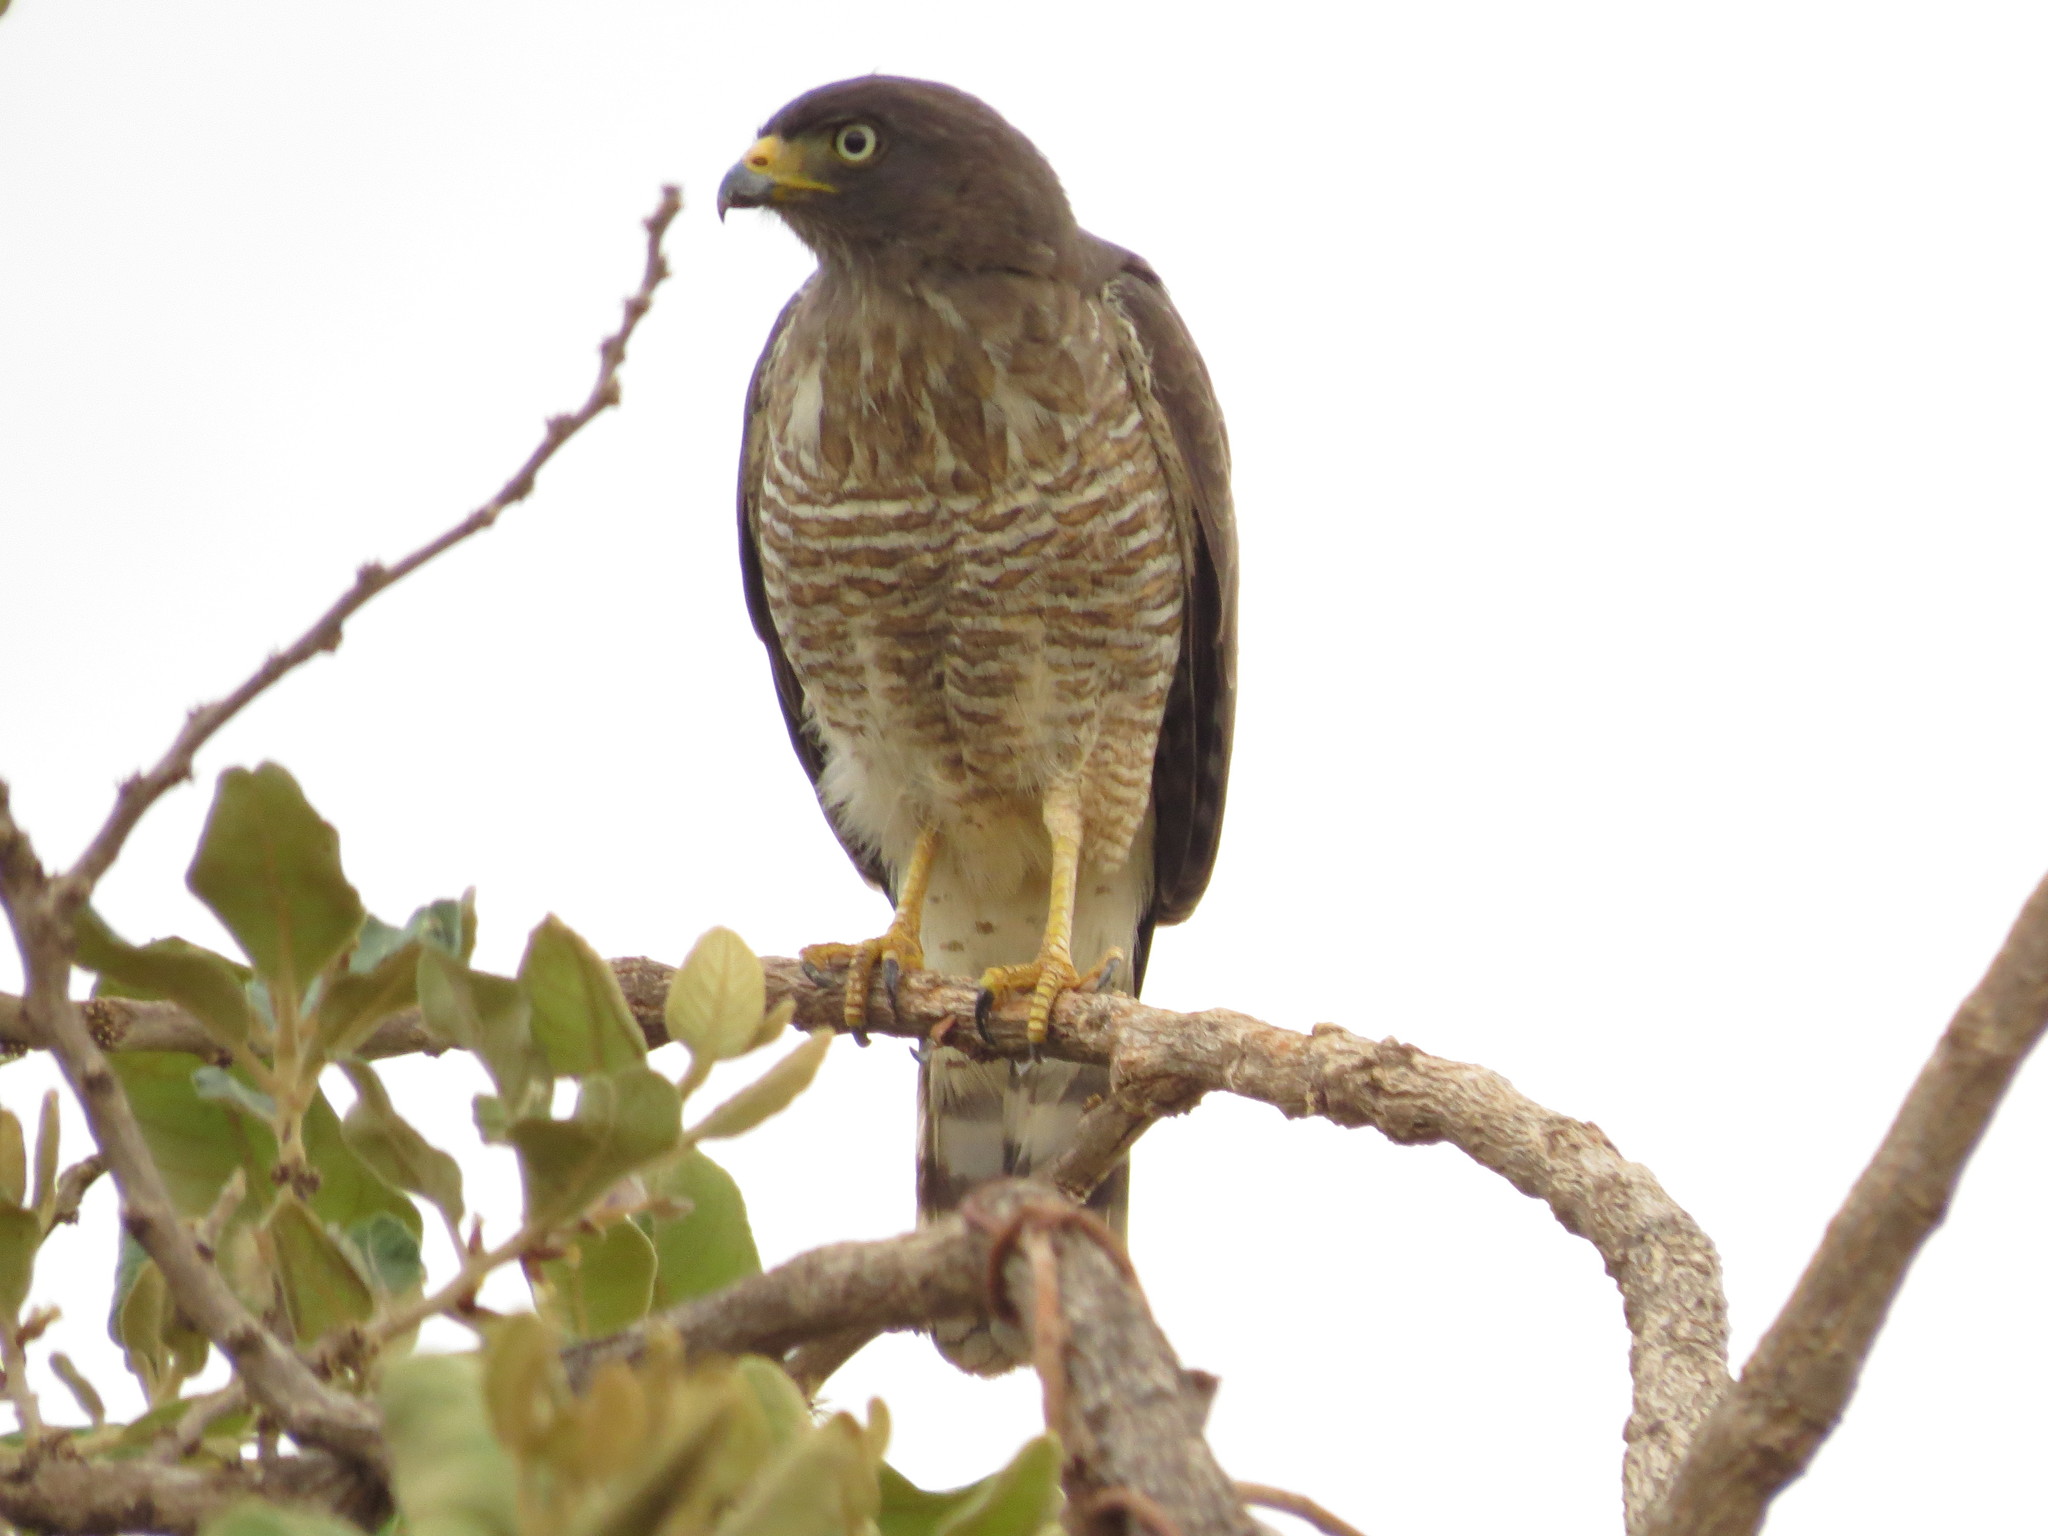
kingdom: Animalia
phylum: Chordata
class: Aves
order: Accipitriformes
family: Accipitridae
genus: Rupornis
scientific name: Rupornis magnirostris
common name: Roadside hawk
